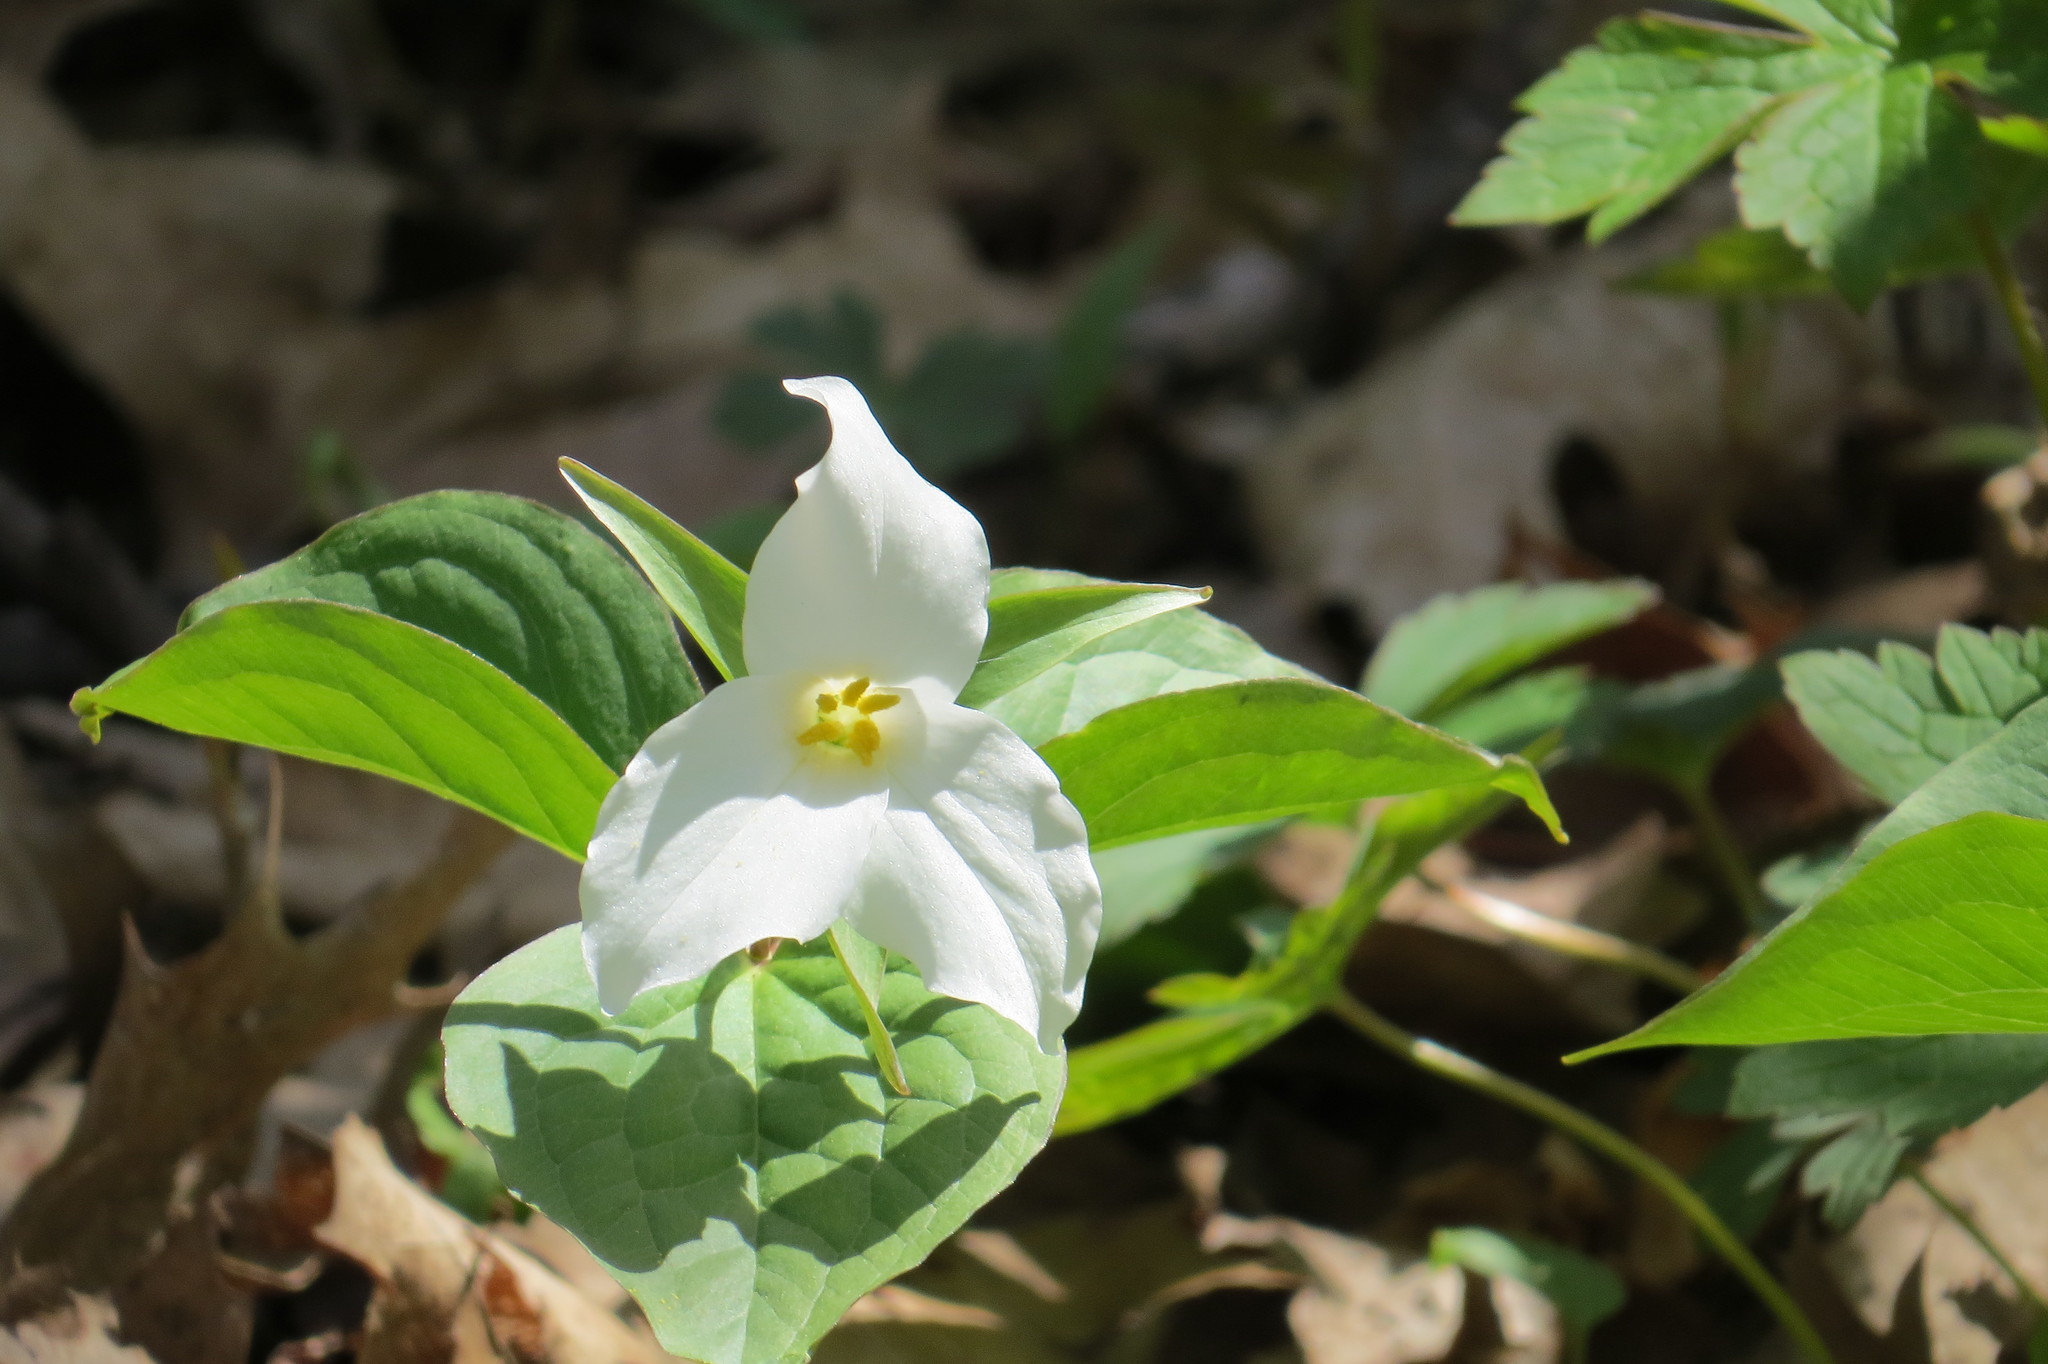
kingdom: Plantae
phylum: Tracheophyta
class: Liliopsida
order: Liliales
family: Melanthiaceae
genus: Trillium
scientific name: Trillium grandiflorum
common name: Great white trillium
